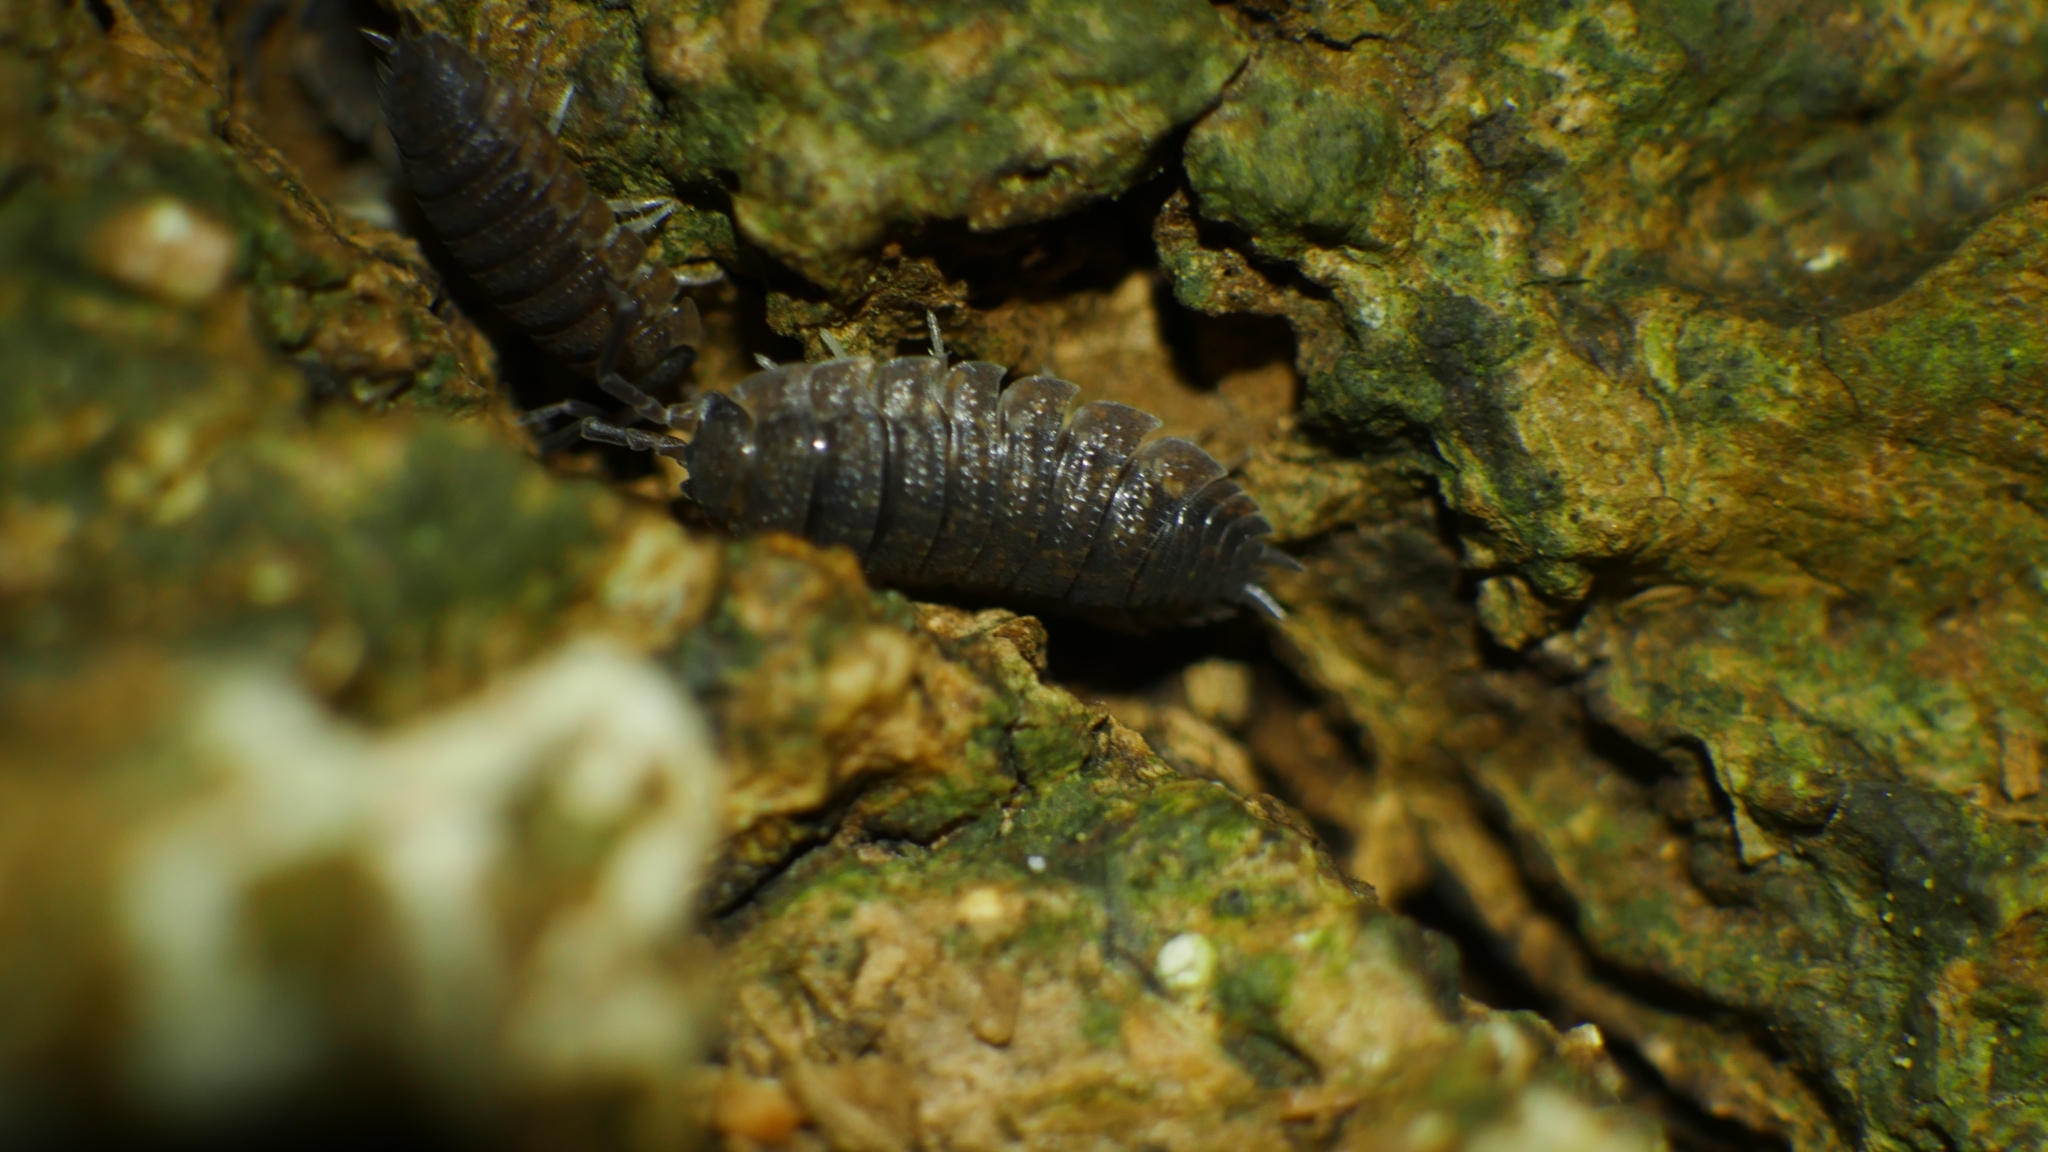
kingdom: Animalia
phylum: Arthropoda
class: Malacostraca
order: Isopoda
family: Porcellionidae
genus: Porcellio
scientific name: Porcellio scaber
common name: Common rough woodlouse
